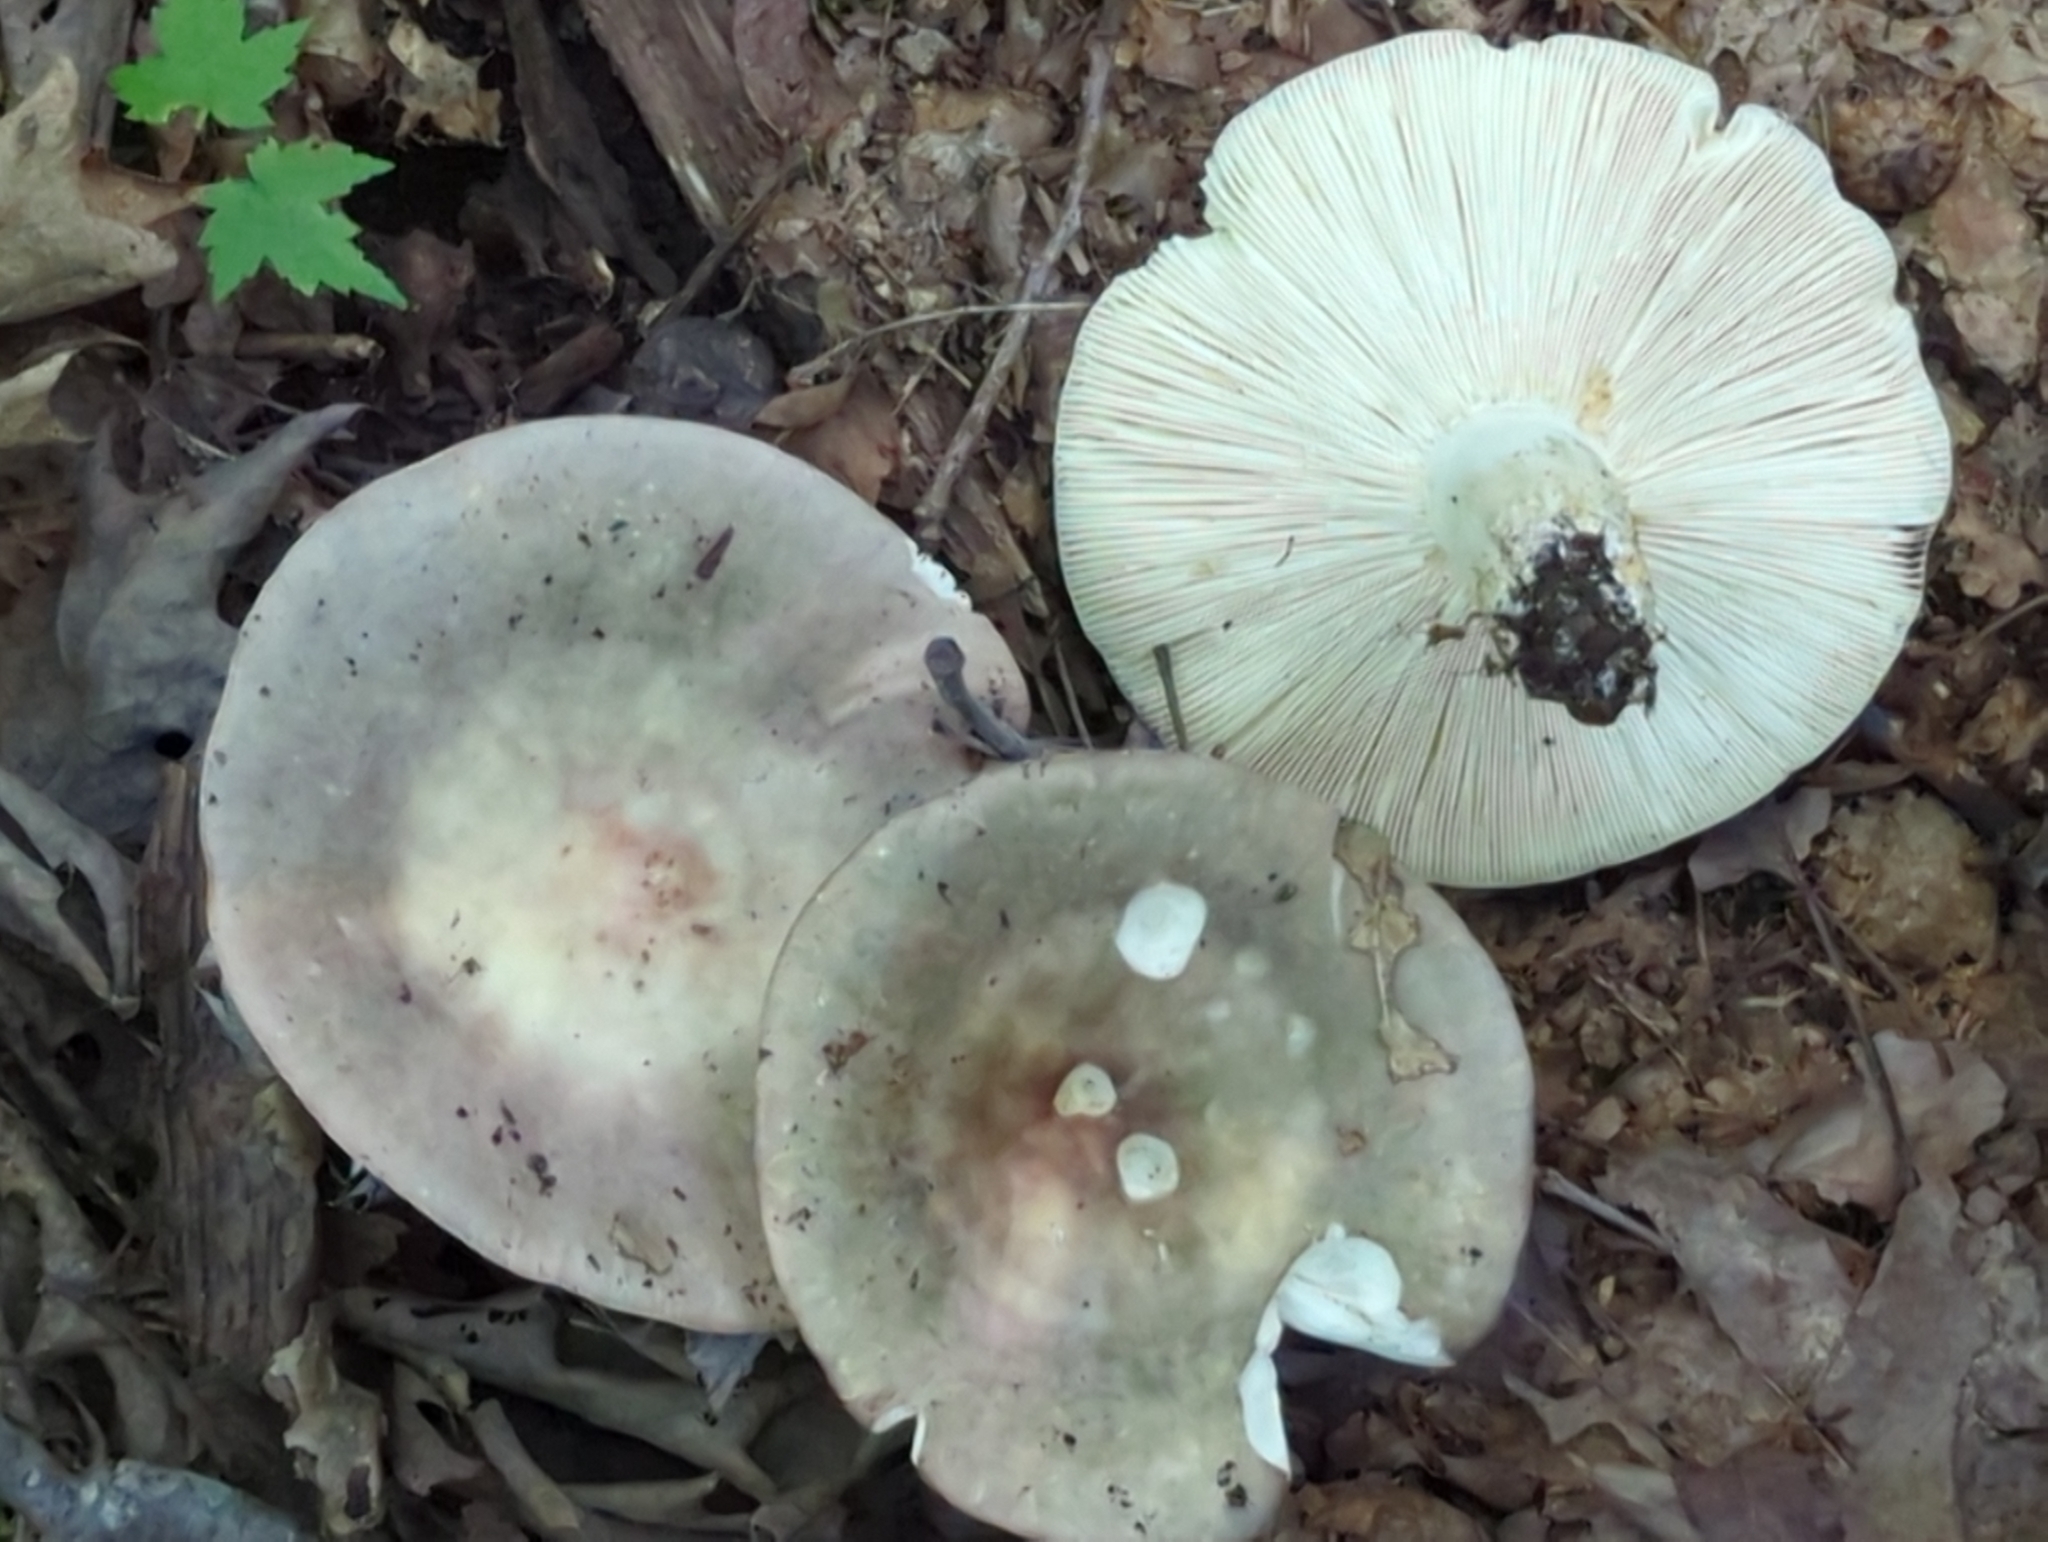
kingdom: Fungi
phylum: Basidiomycota
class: Agaricomycetes
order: Russulales
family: Russulaceae
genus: Russula
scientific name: Russula cyanoxantha
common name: Charcoal burner
